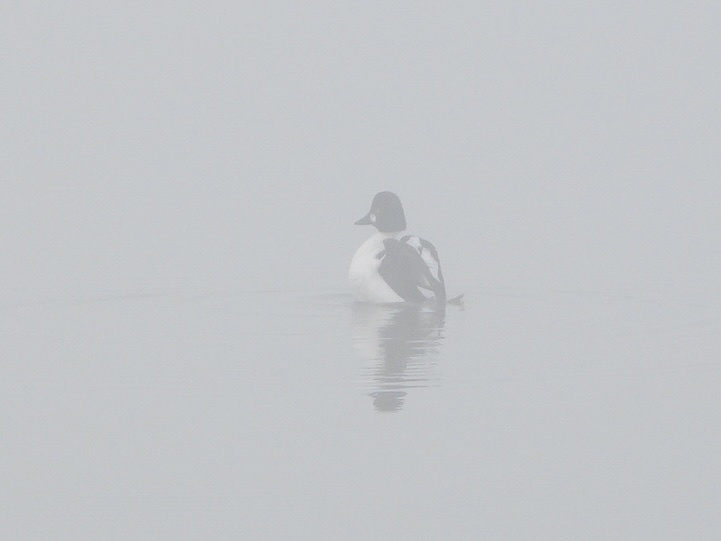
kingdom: Animalia
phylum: Chordata
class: Aves
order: Anseriformes
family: Anatidae
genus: Bucephala
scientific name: Bucephala clangula
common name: Common goldeneye
